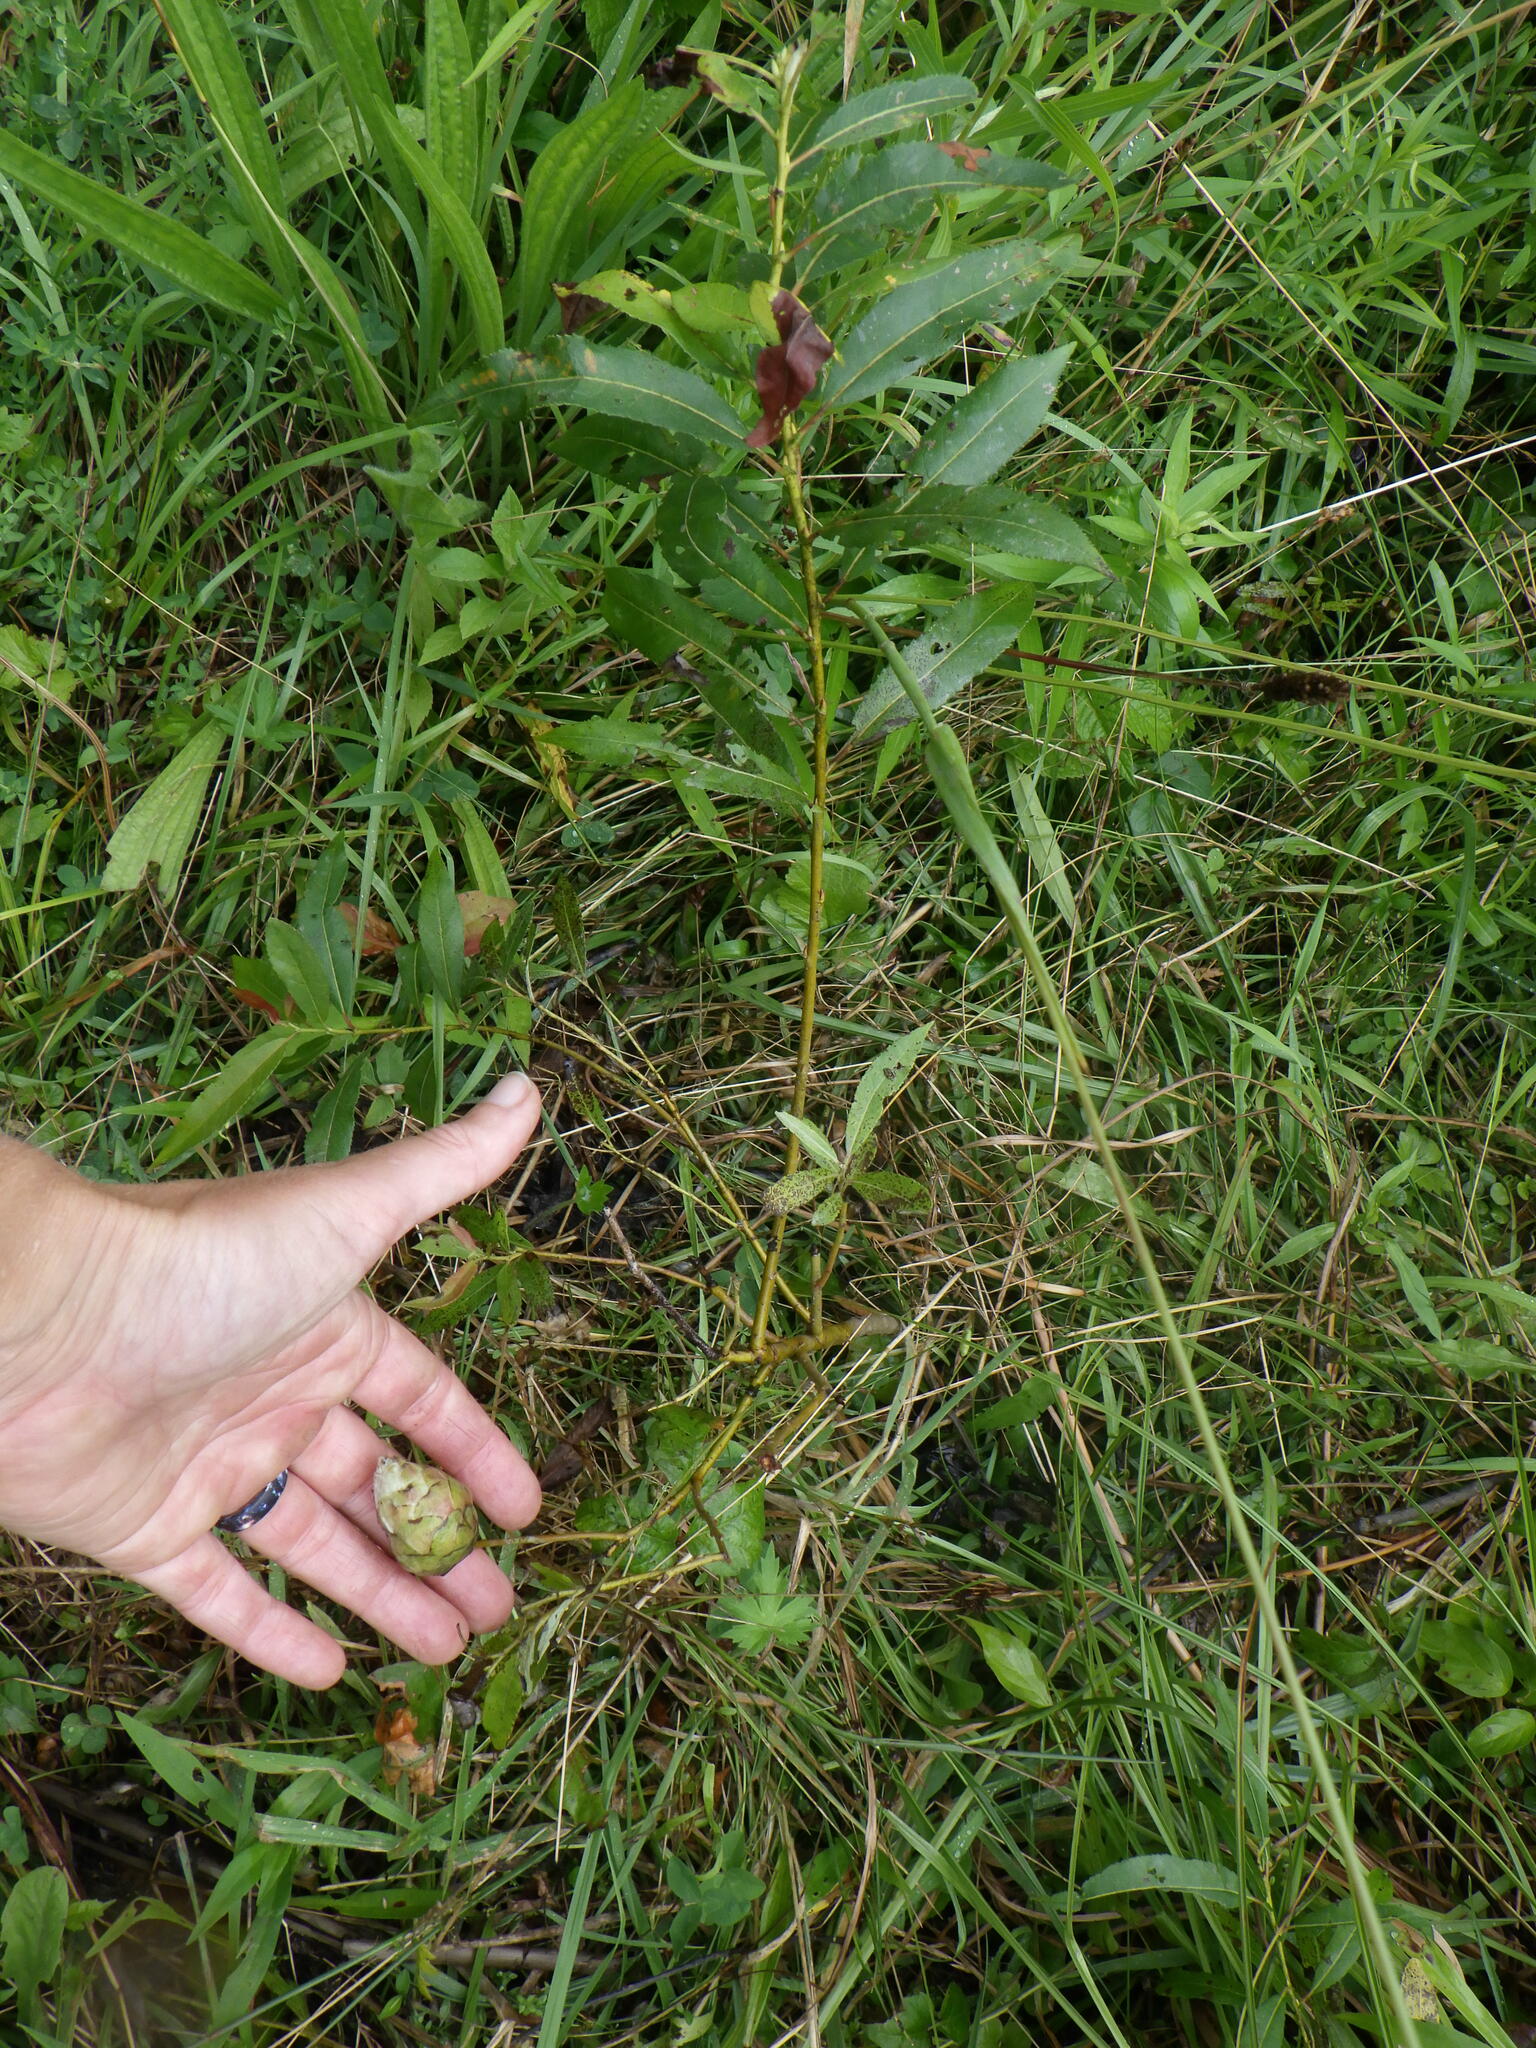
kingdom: Animalia
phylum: Arthropoda
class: Insecta
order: Diptera
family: Cecidomyiidae
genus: Rabdophaga
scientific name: Rabdophaga strobiloides
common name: Willow pinecone gall midge
